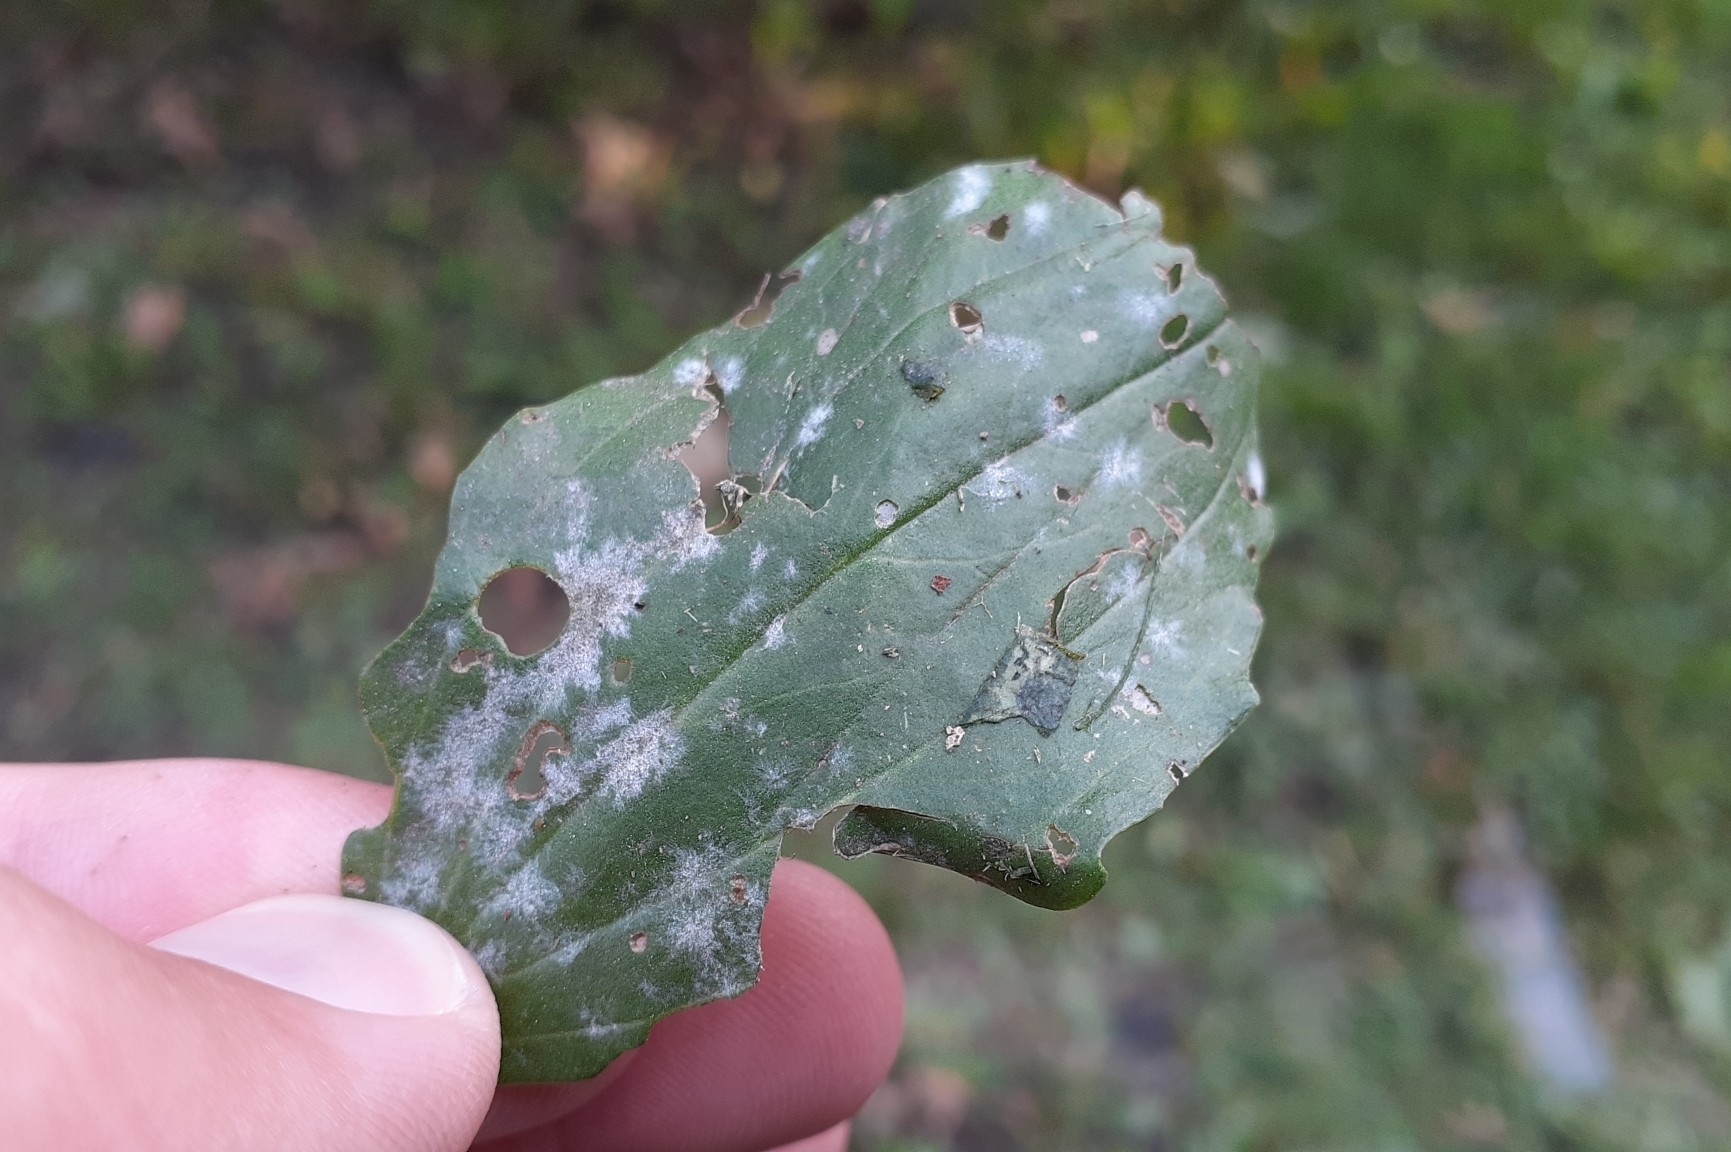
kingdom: Fungi
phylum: Ascomycota
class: Leotiomycetes
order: Helotiales
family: Erysiphaceae
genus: Golovinomyces
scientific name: Golovinomyces sordidus
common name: Plantain mildew
